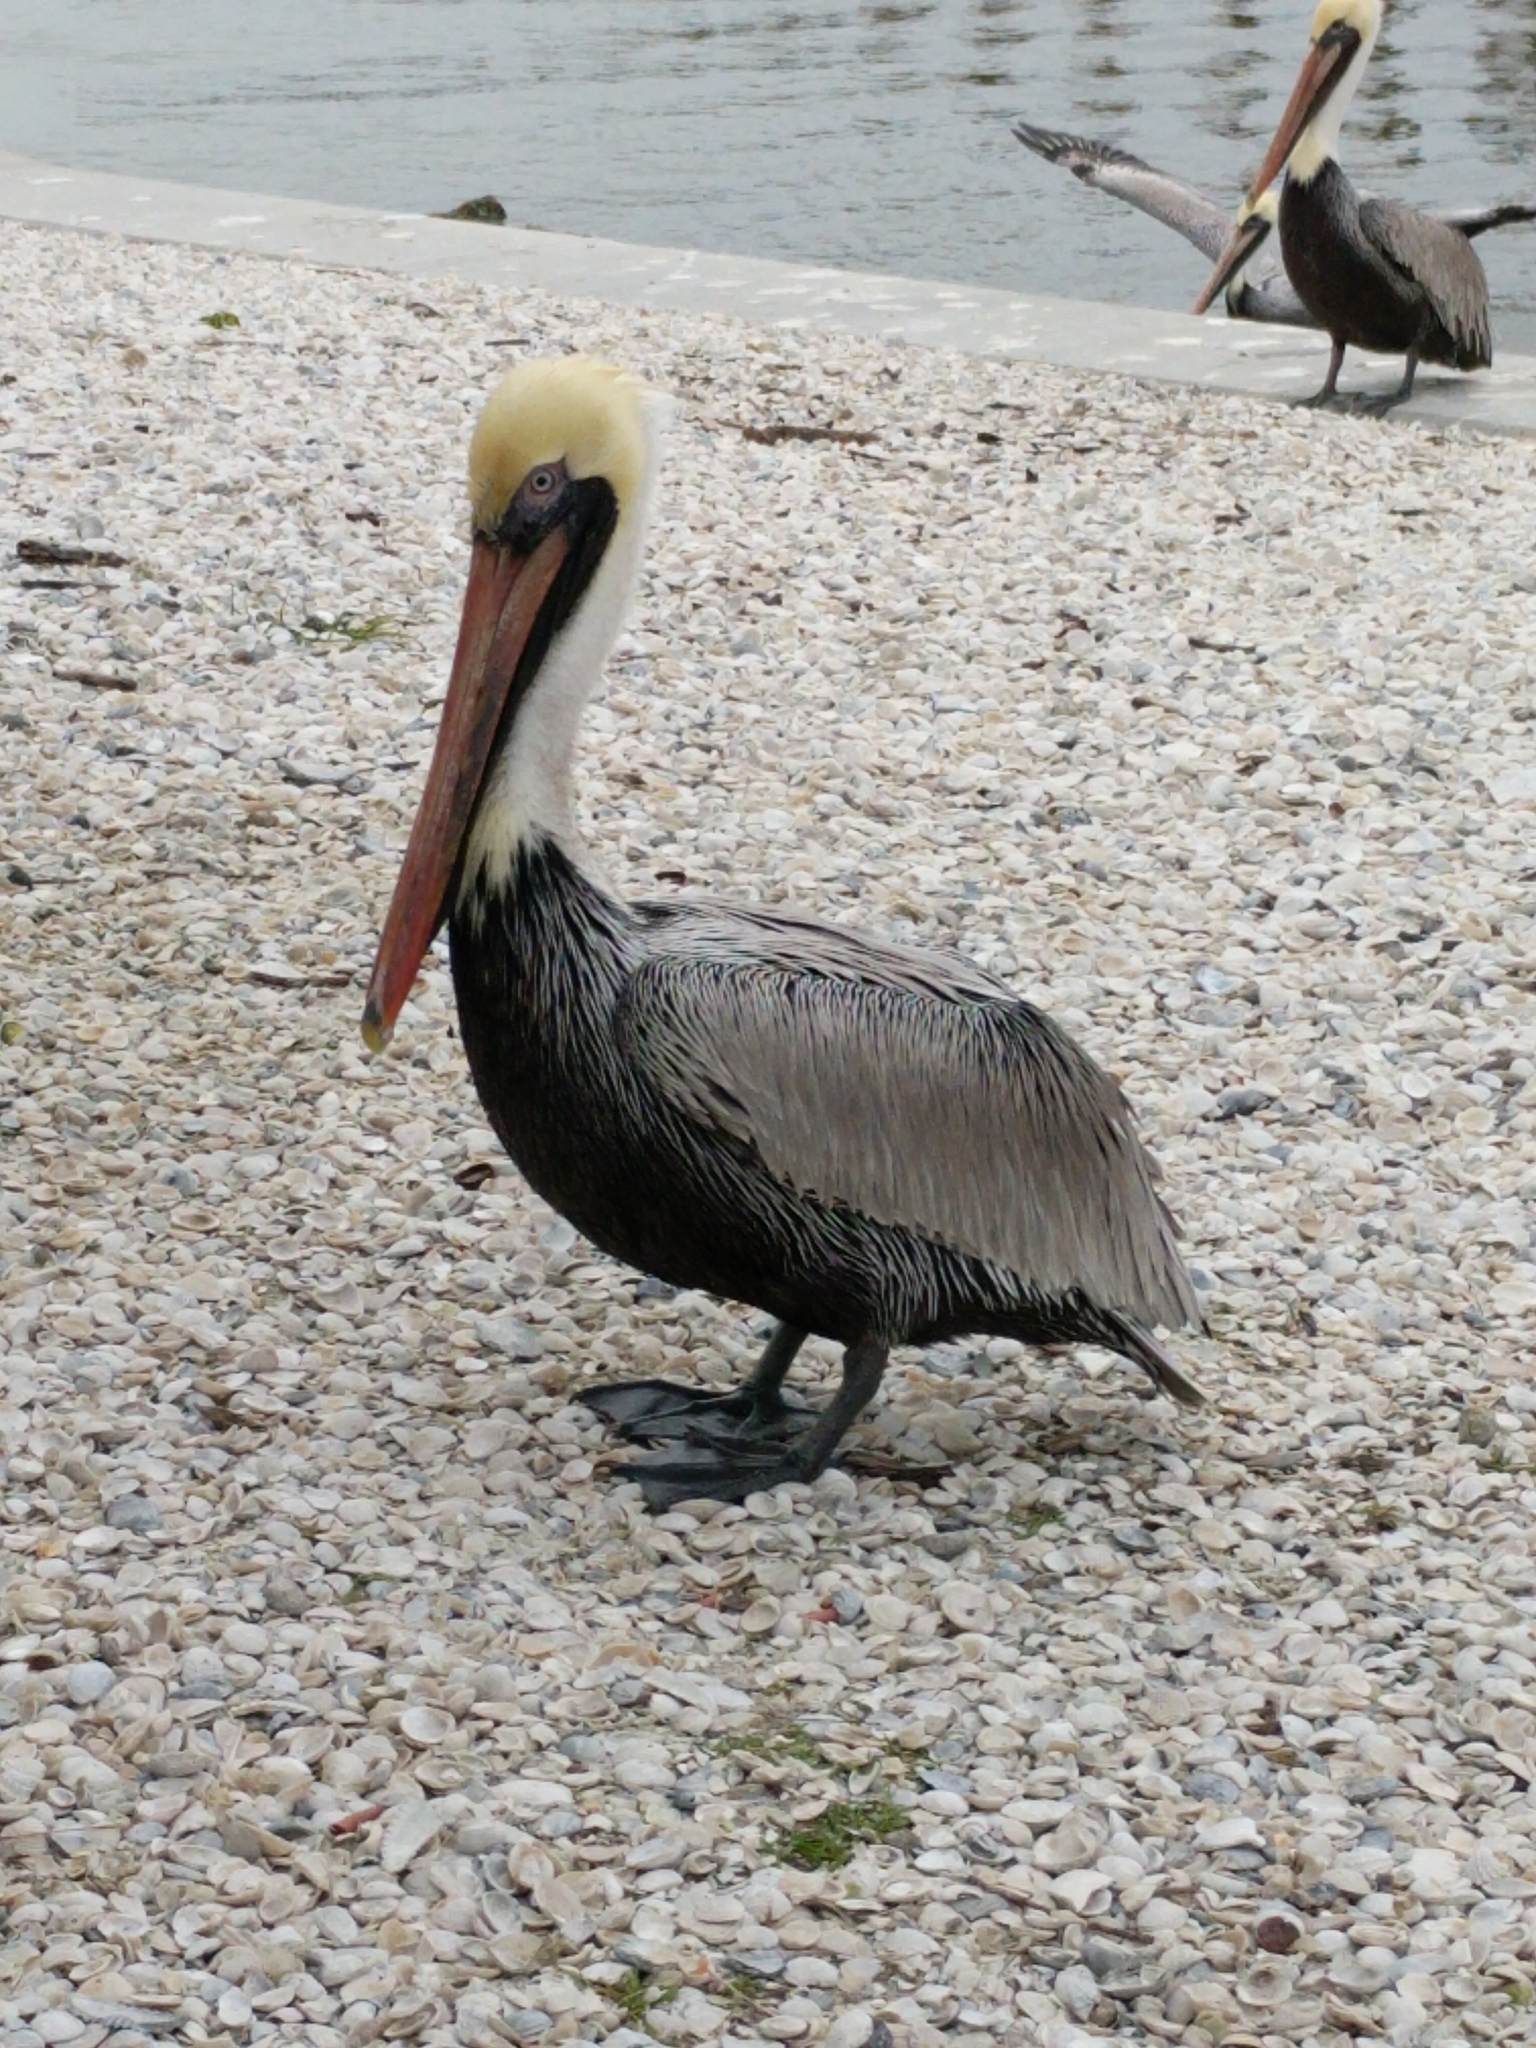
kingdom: Animalia
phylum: Chordata
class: Aves
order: Pelecaniformes
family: Pelecanidae
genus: Pelecanus
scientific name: Pelecanus occidentalis
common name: Brown pelican
